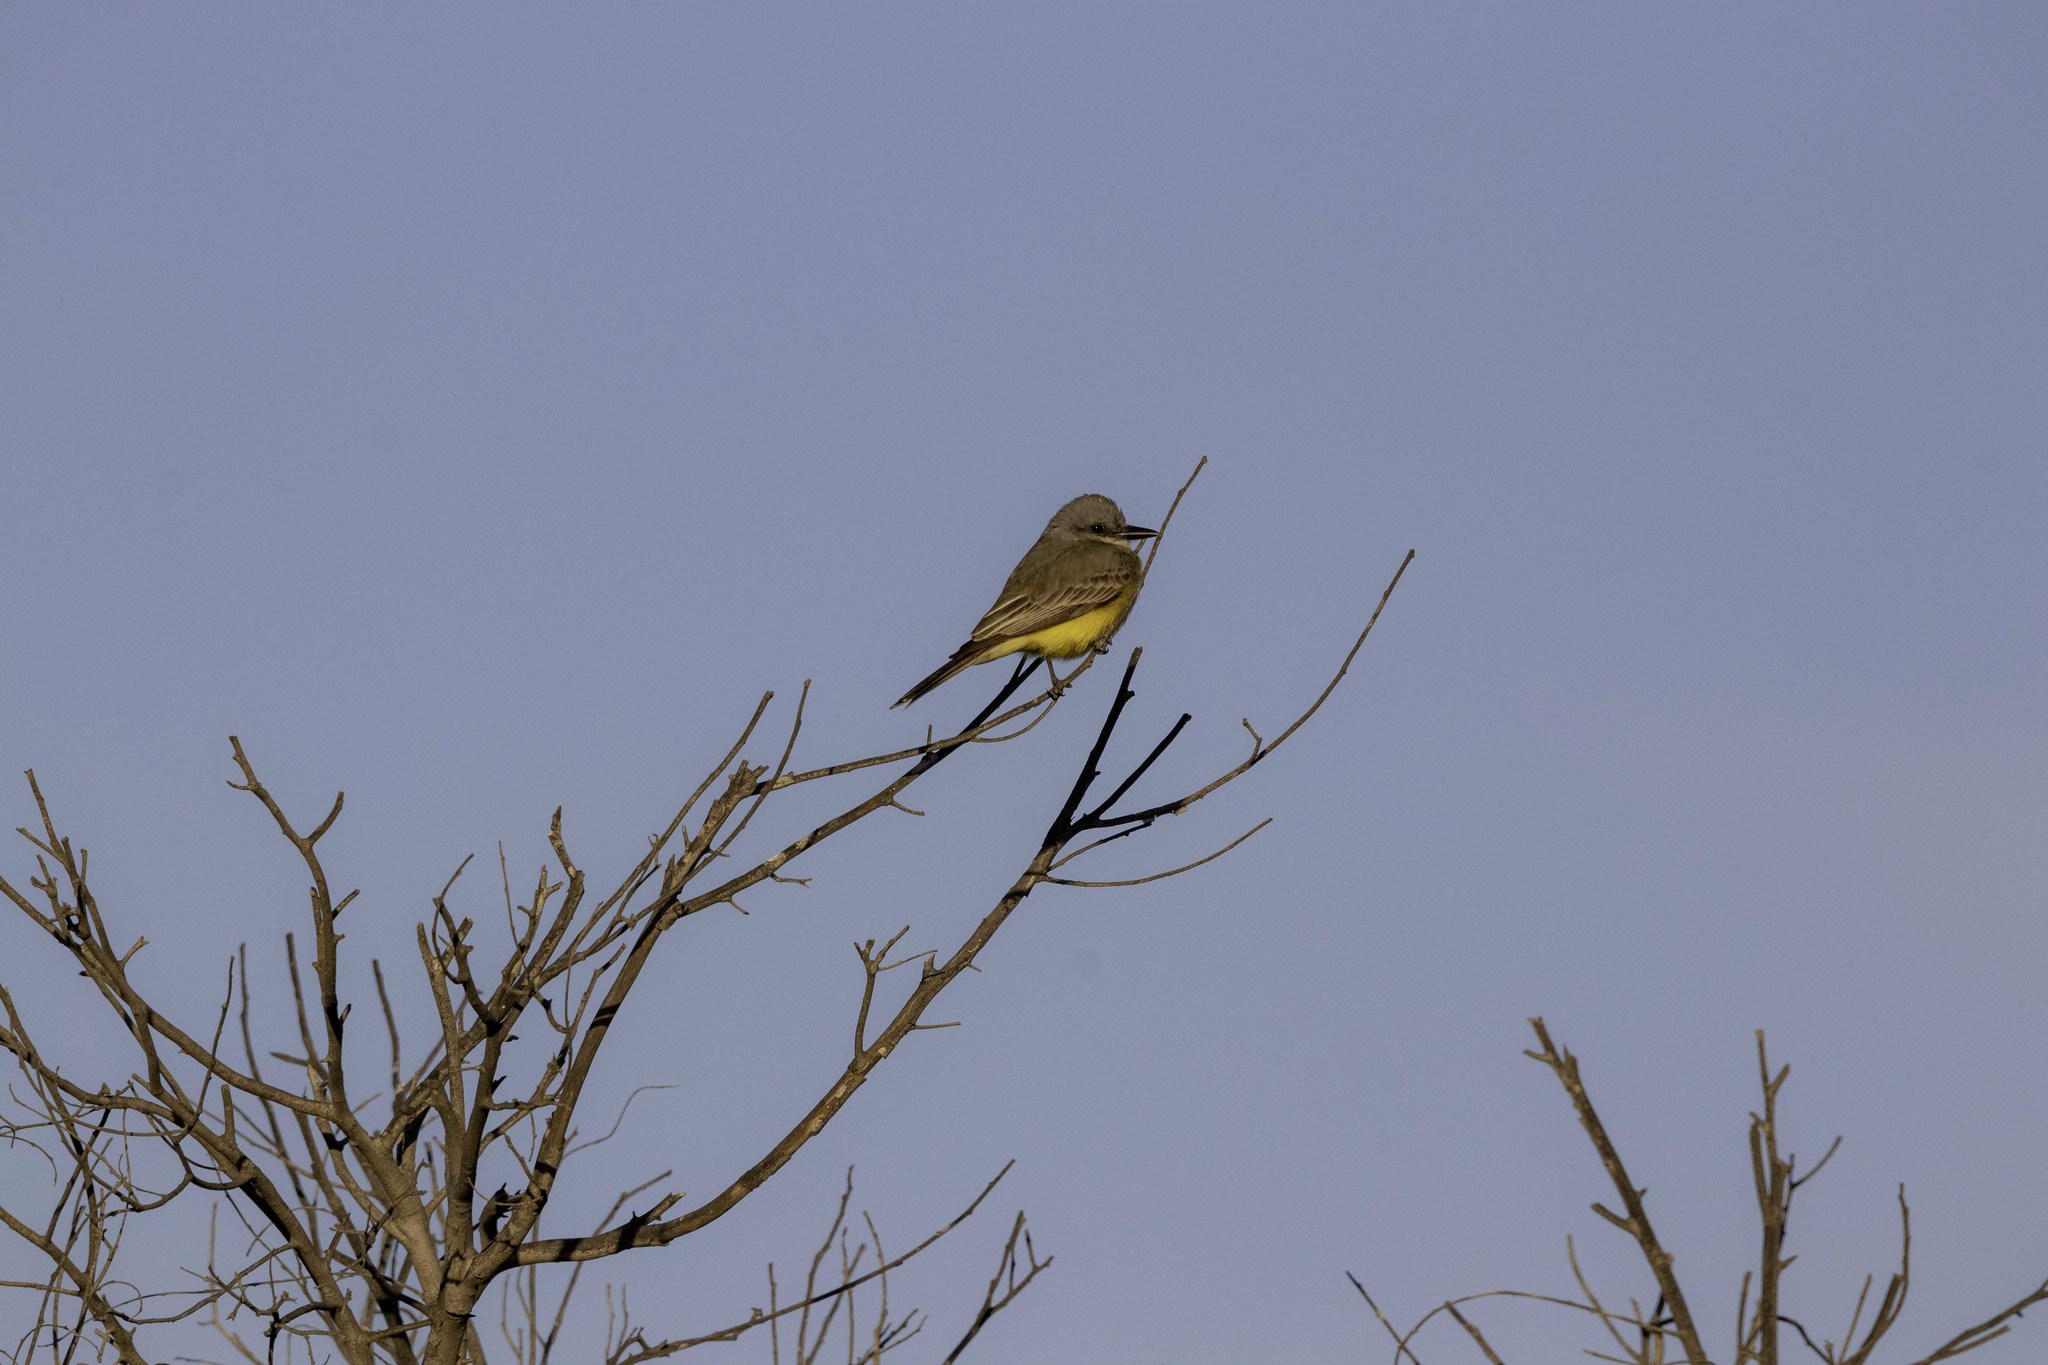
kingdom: Animalia
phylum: Chordata
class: Aves
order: Passeriformes
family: Tyrannidae
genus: Tyrannus
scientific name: Tyrannus melancholicus
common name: Tropical kingbird
